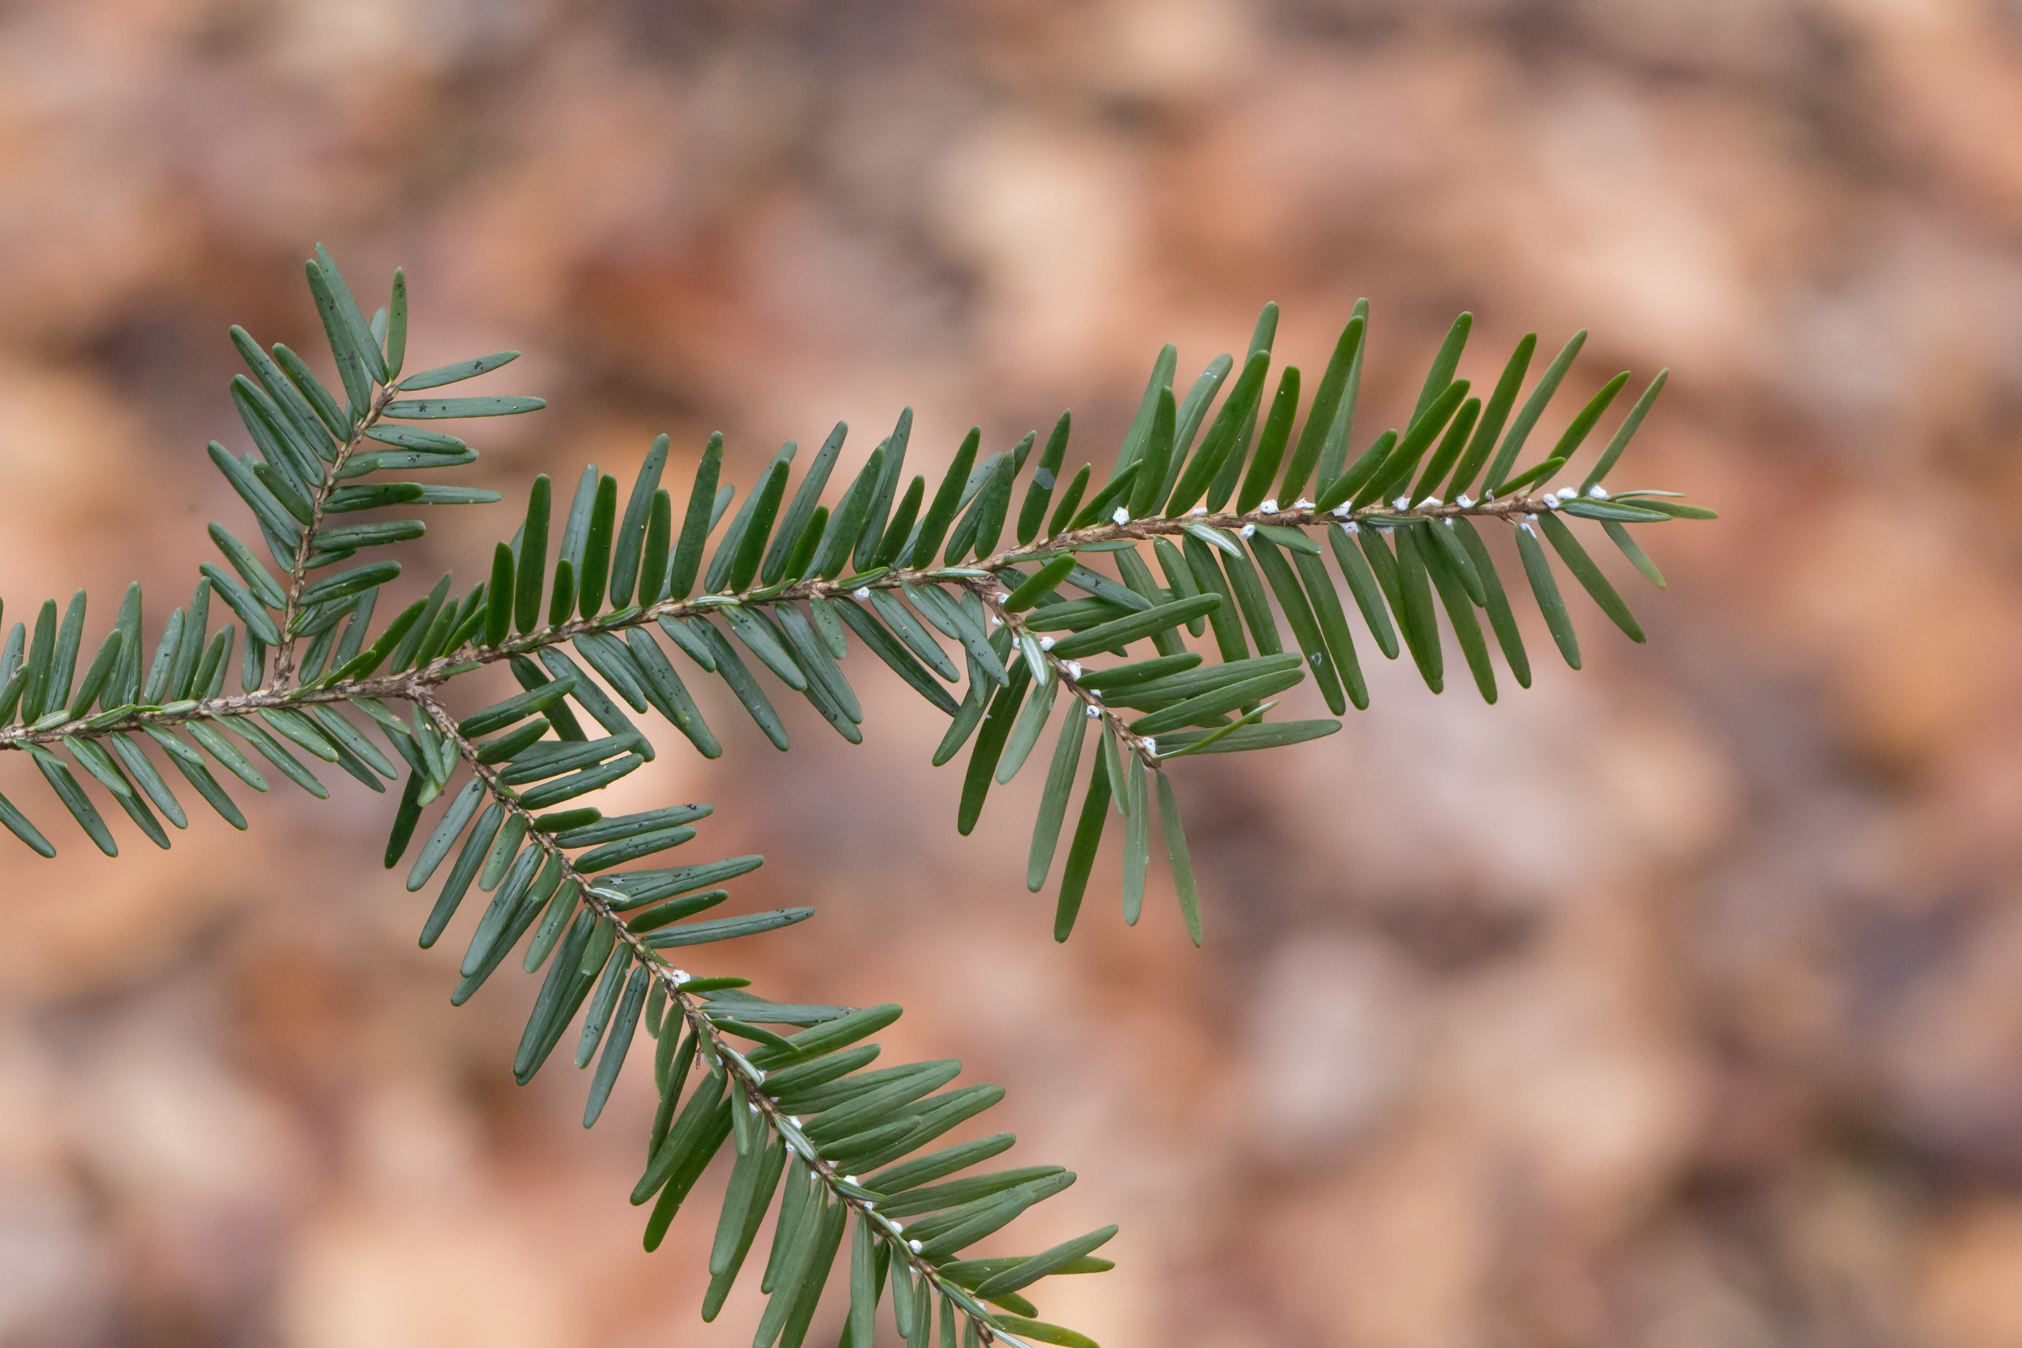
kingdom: Plantae
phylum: Tracheophyta
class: Pinopsida
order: Pinales
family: Pinaceae
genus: Tsuga
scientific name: Tsuga canadensis
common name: Eastern hemlock
